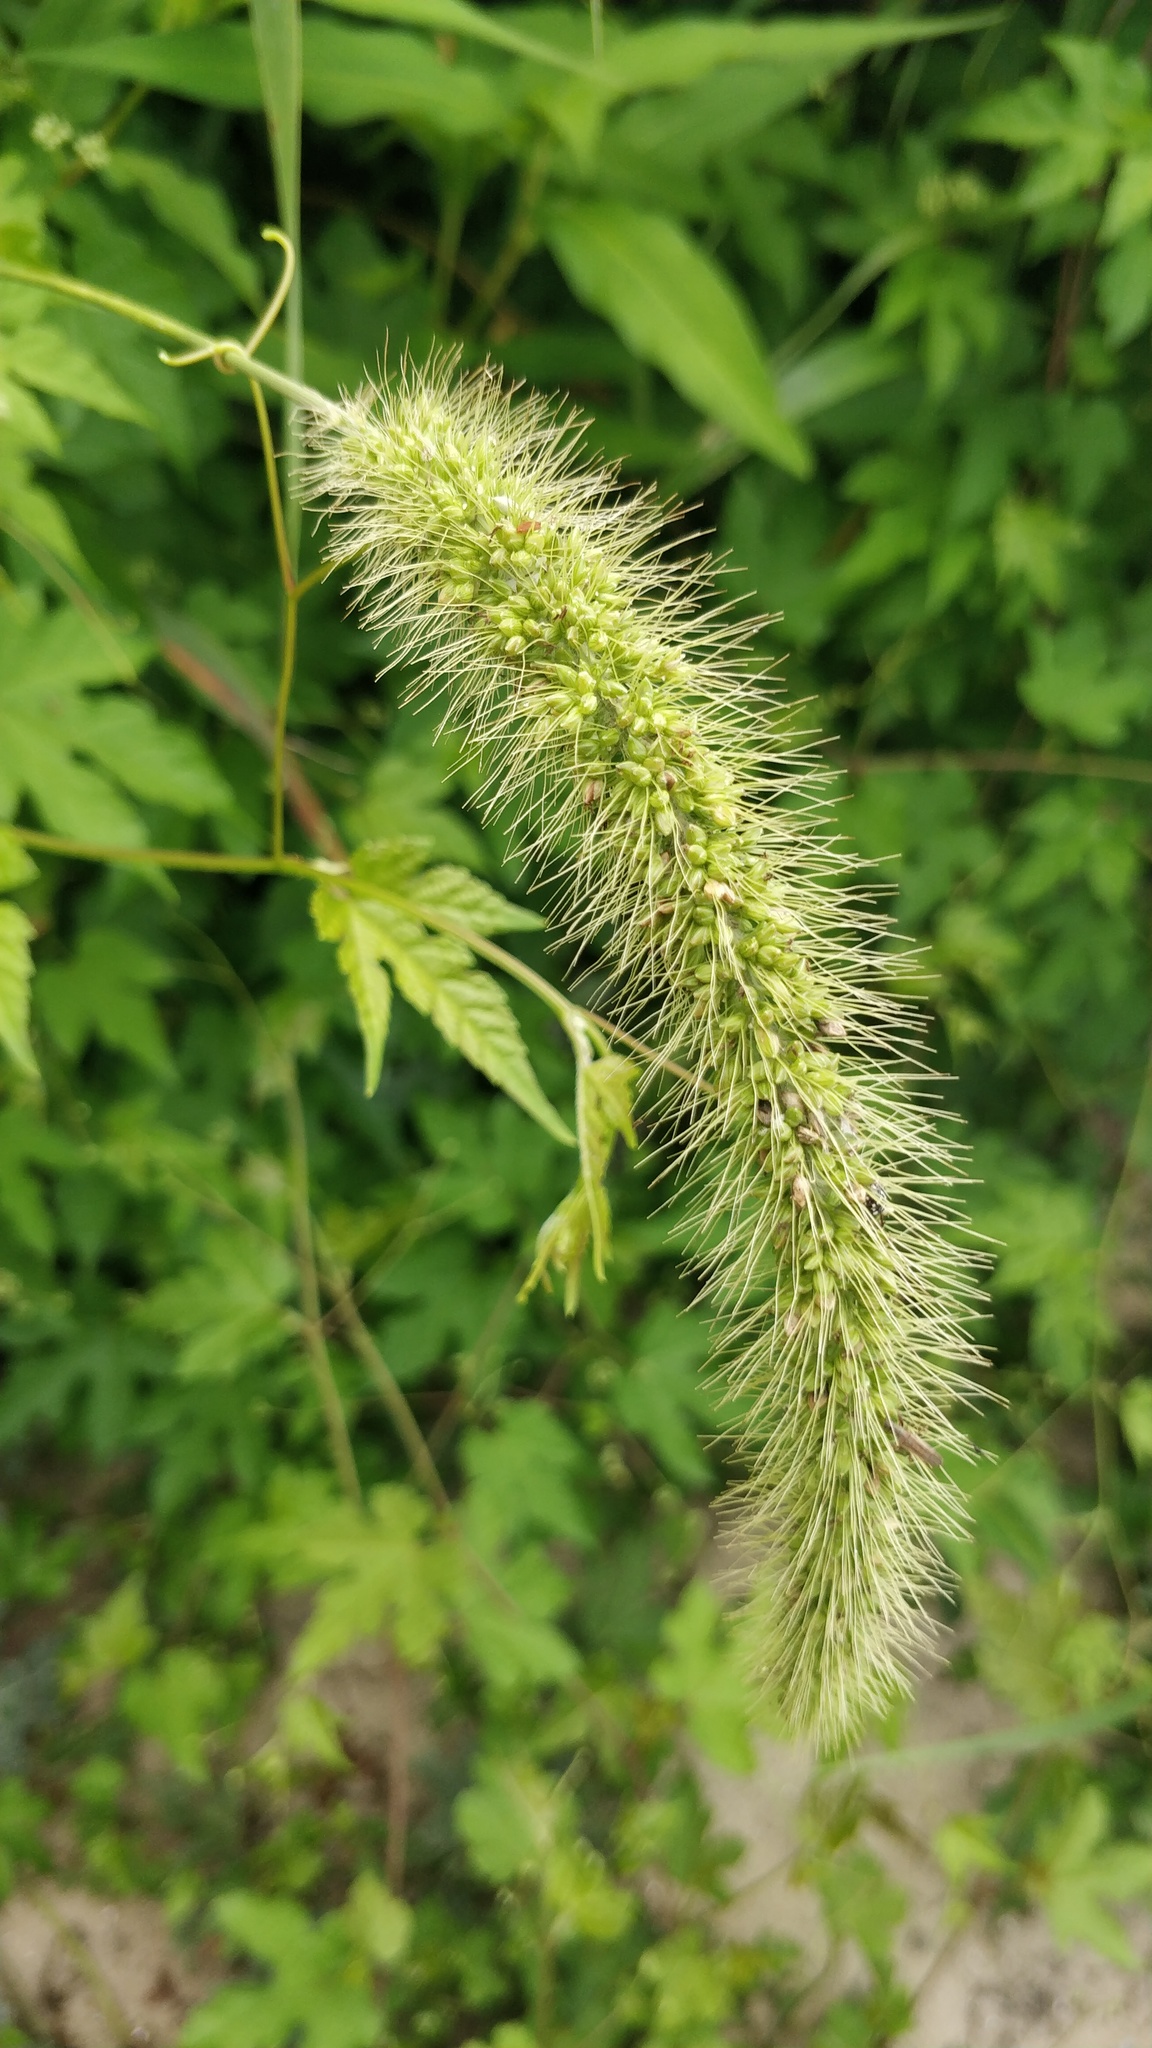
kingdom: Plantae
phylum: Tracheophyta
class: Liliopsida
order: Poales
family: Poaceae
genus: Setaria
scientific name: Setaria faberi
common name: Nodding bristle-grass
